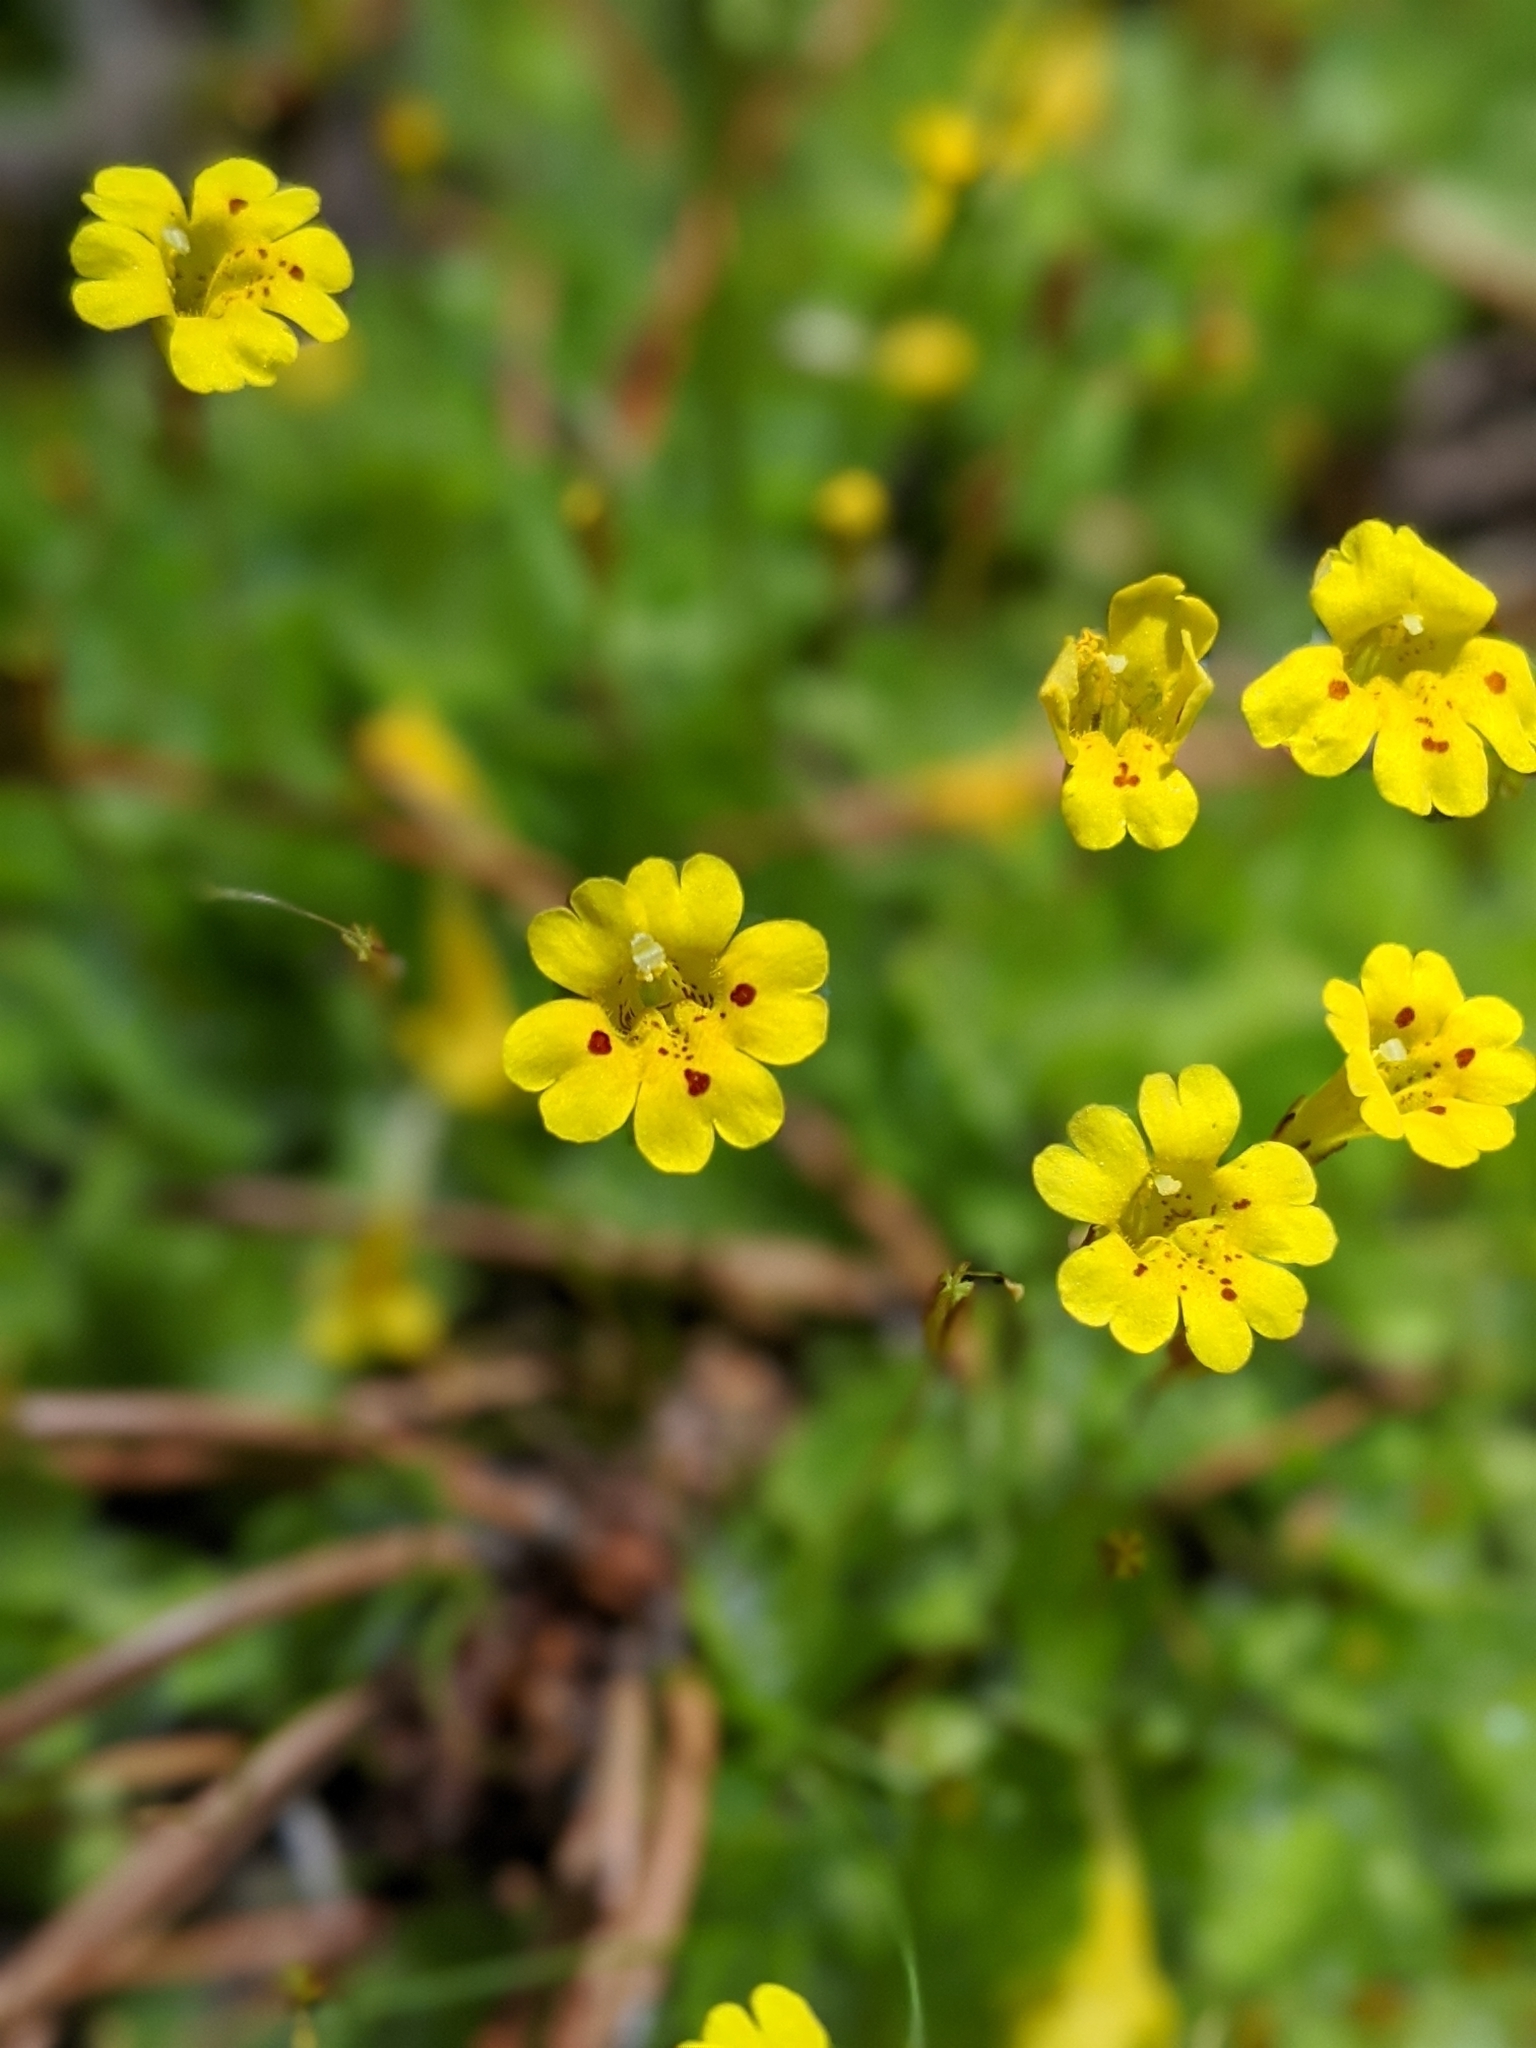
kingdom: Plantae
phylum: Tracheophyta
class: Magnoliopsida
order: Lamiales
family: Phrymaceae
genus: Erythranthe
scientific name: Erythranthe primuloides
